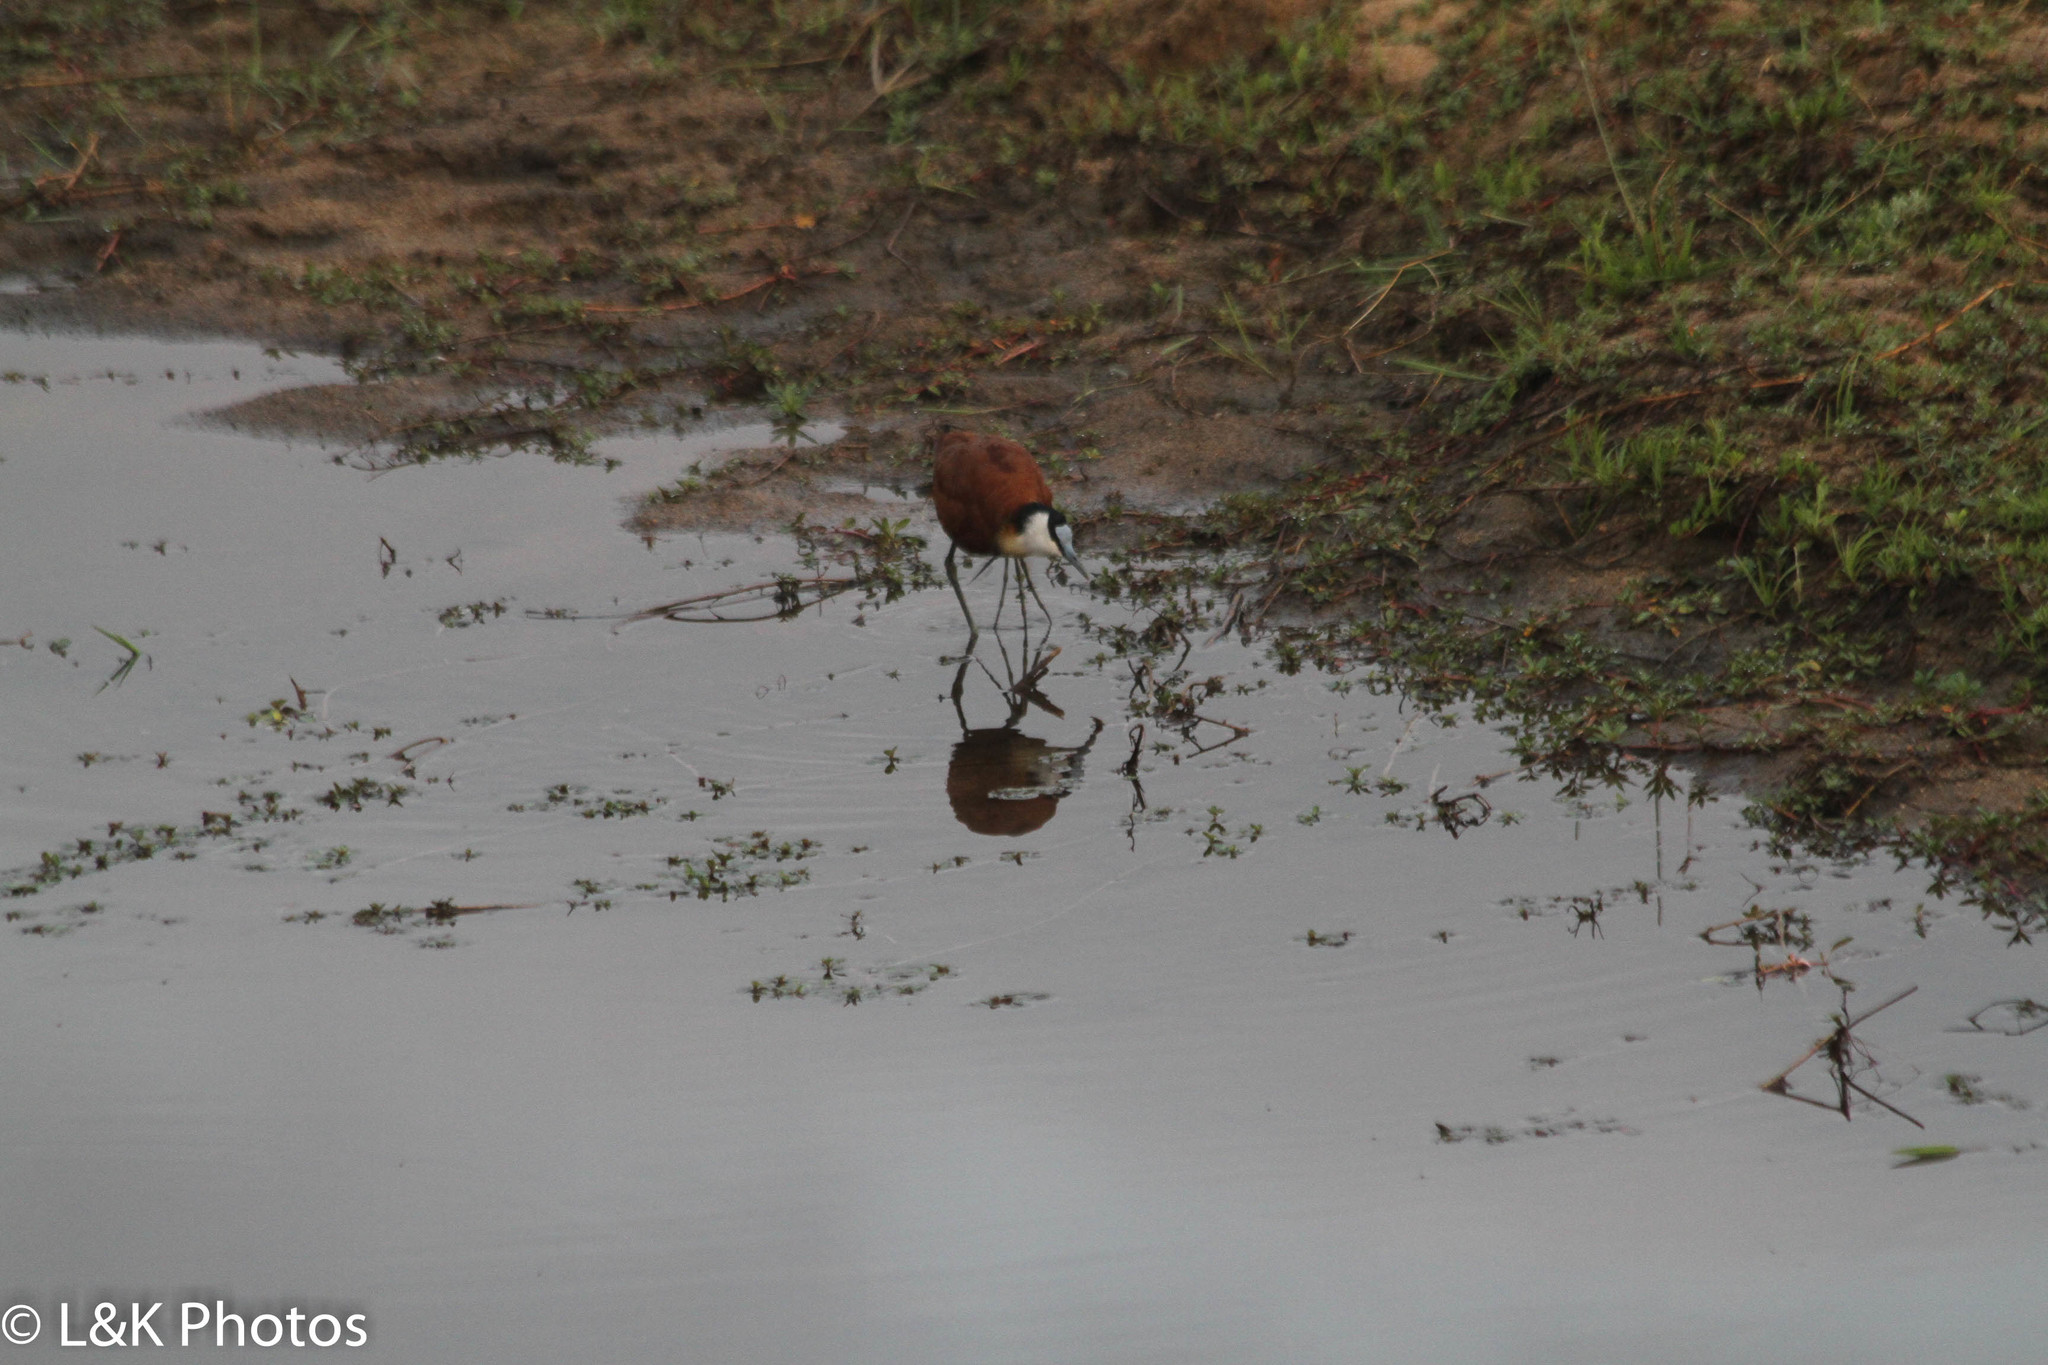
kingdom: Animalia
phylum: Chordata
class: Aves
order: Charadriiformes
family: Jacanidae
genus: Actophilornis
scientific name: Actophilornis africanus
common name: African jacana
